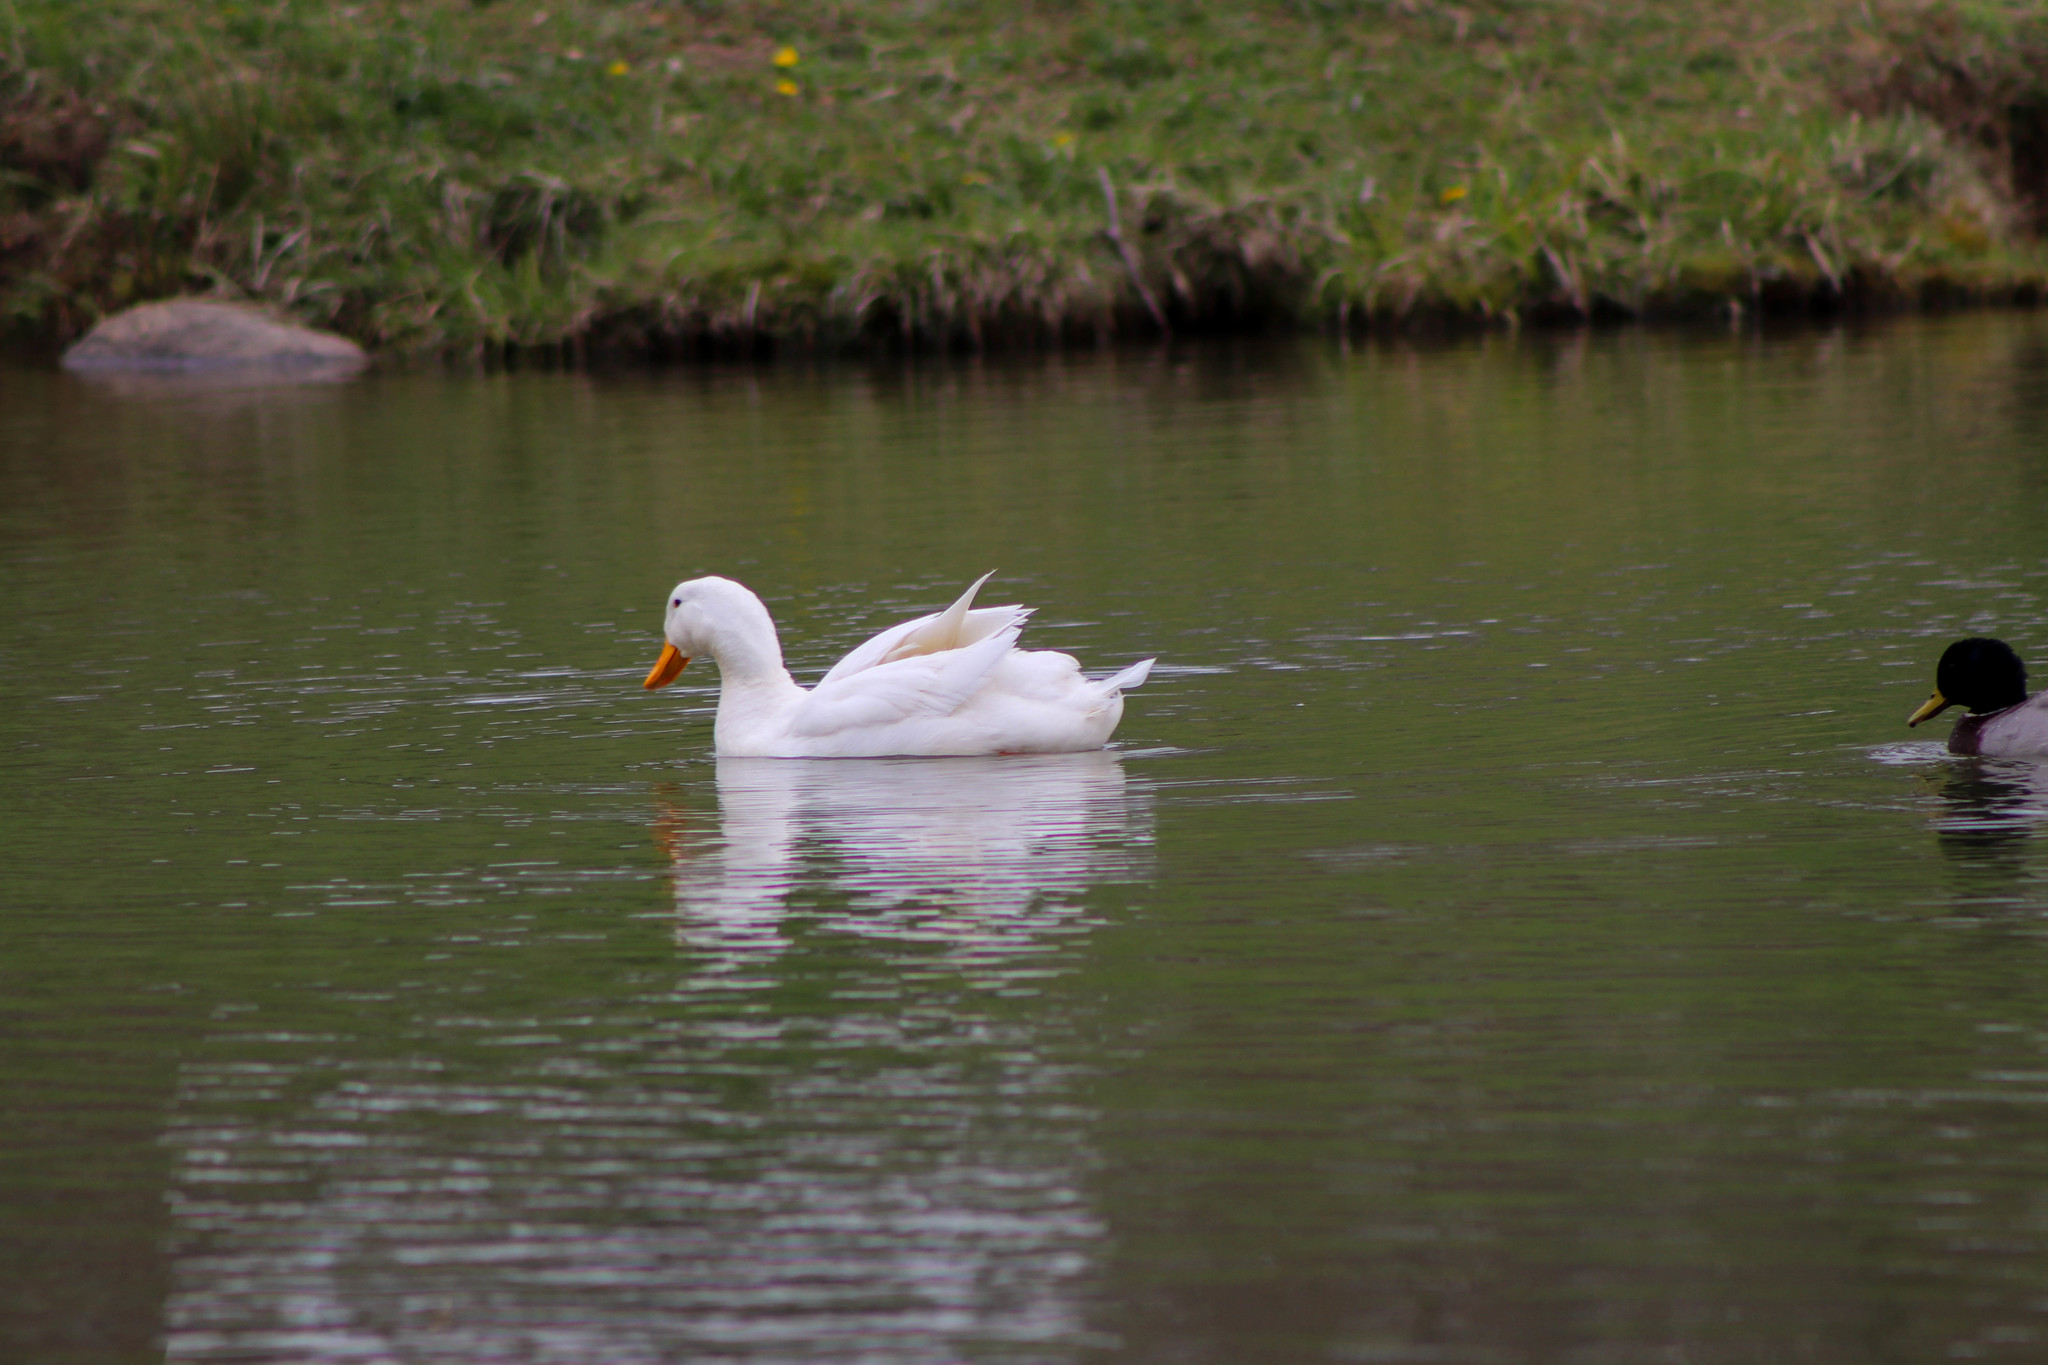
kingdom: Animalia
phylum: Chordata
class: Aves
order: Anseriformes
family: Anatidae
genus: Anas
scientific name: Anas platyrhynchos
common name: Mallard
